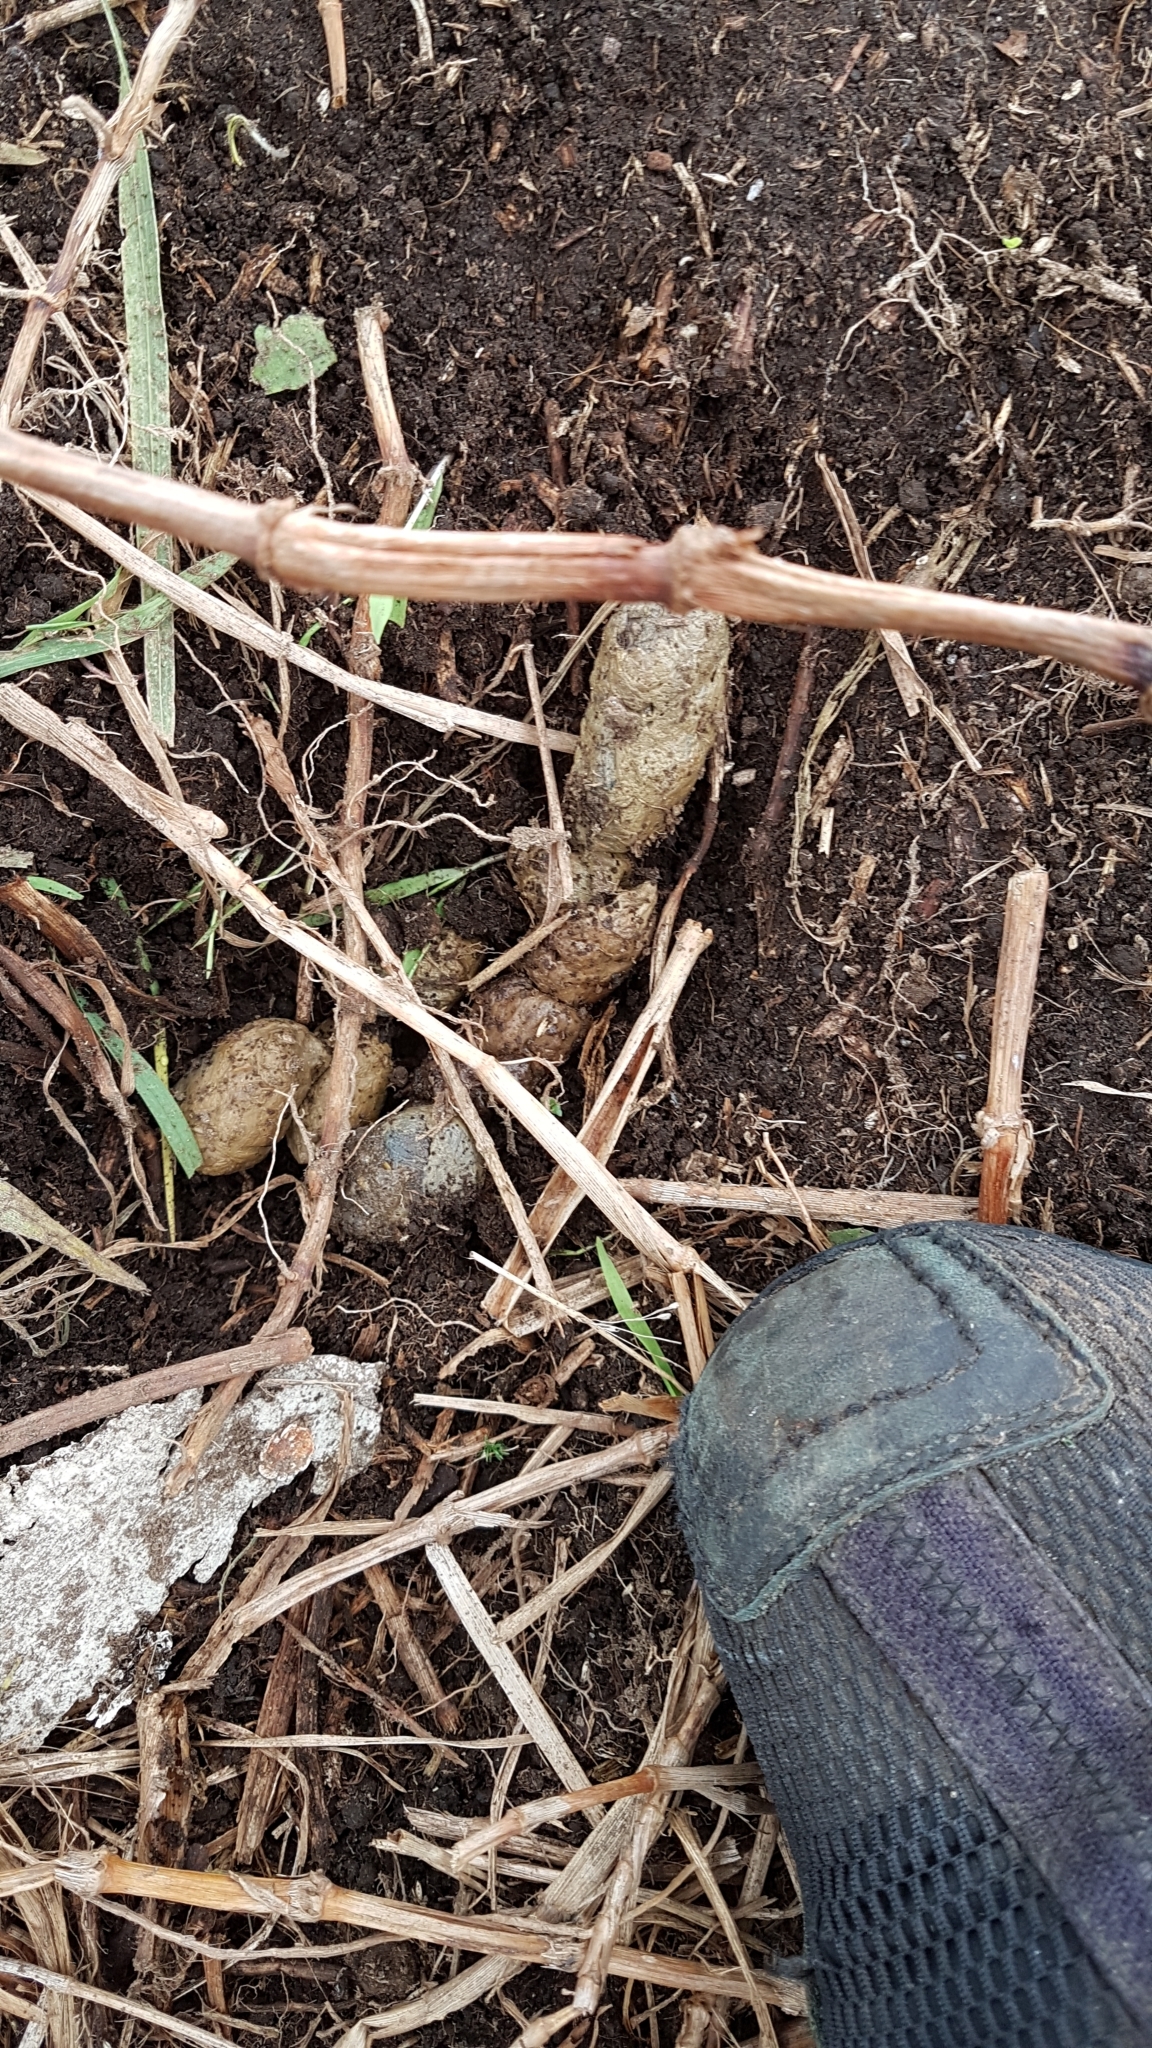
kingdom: Animalia
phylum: Chordata
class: Mammalia
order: Carnivora
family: Felidae
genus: Felis
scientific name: Felis catus
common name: Domestic cat
